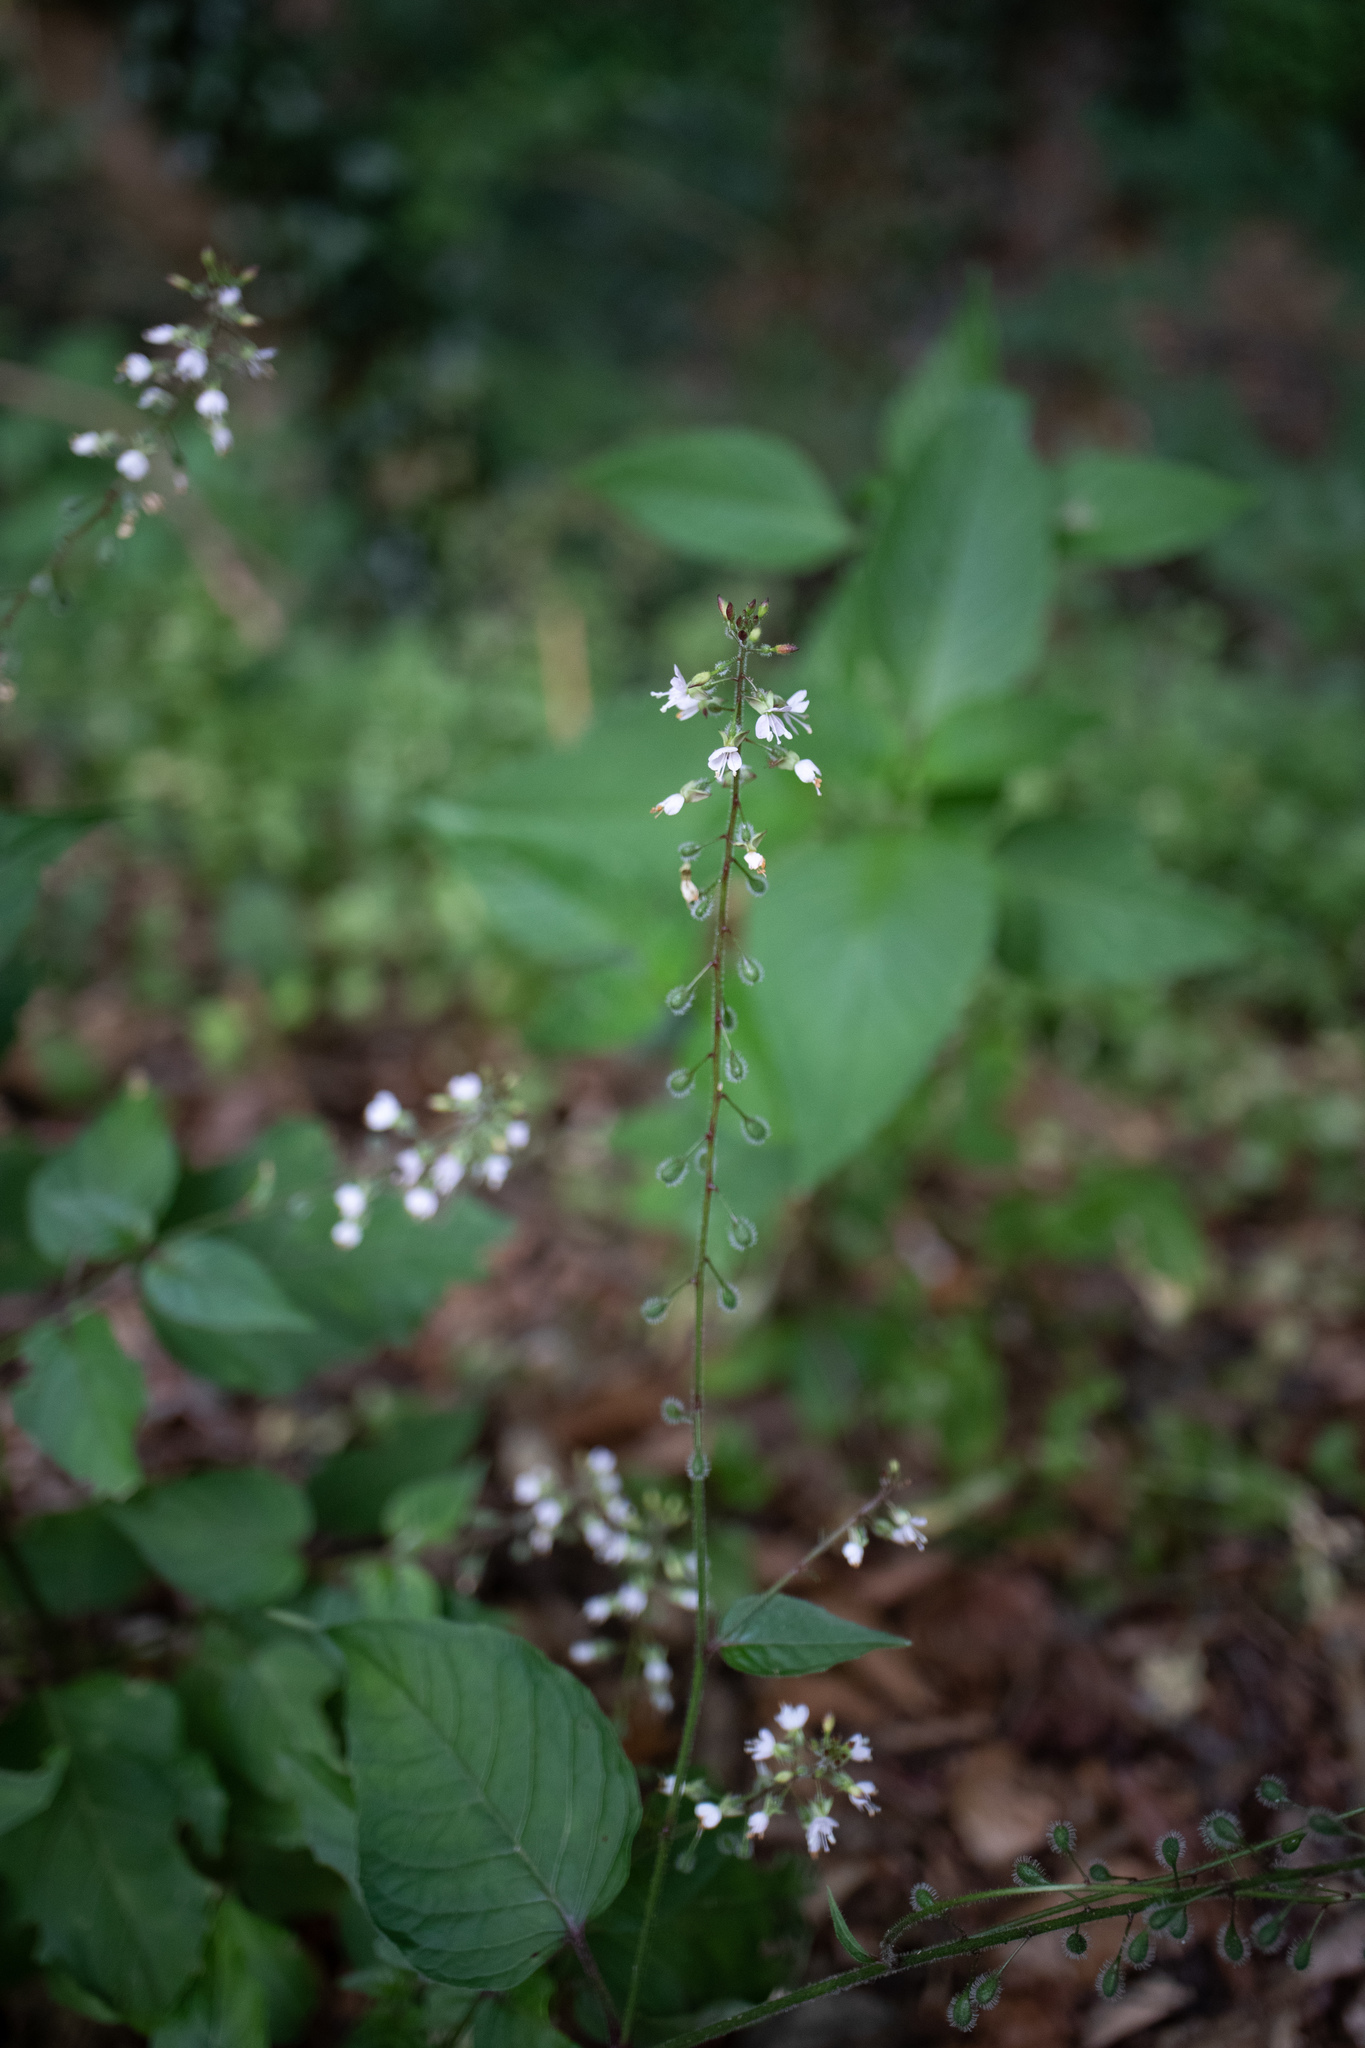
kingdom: Plantae
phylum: Tracheophyta
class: Magnoliopsida
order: Myrtales
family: Onagraceae
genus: Circaea
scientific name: Circaea lutetiana
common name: Enchanter's-nightshade
